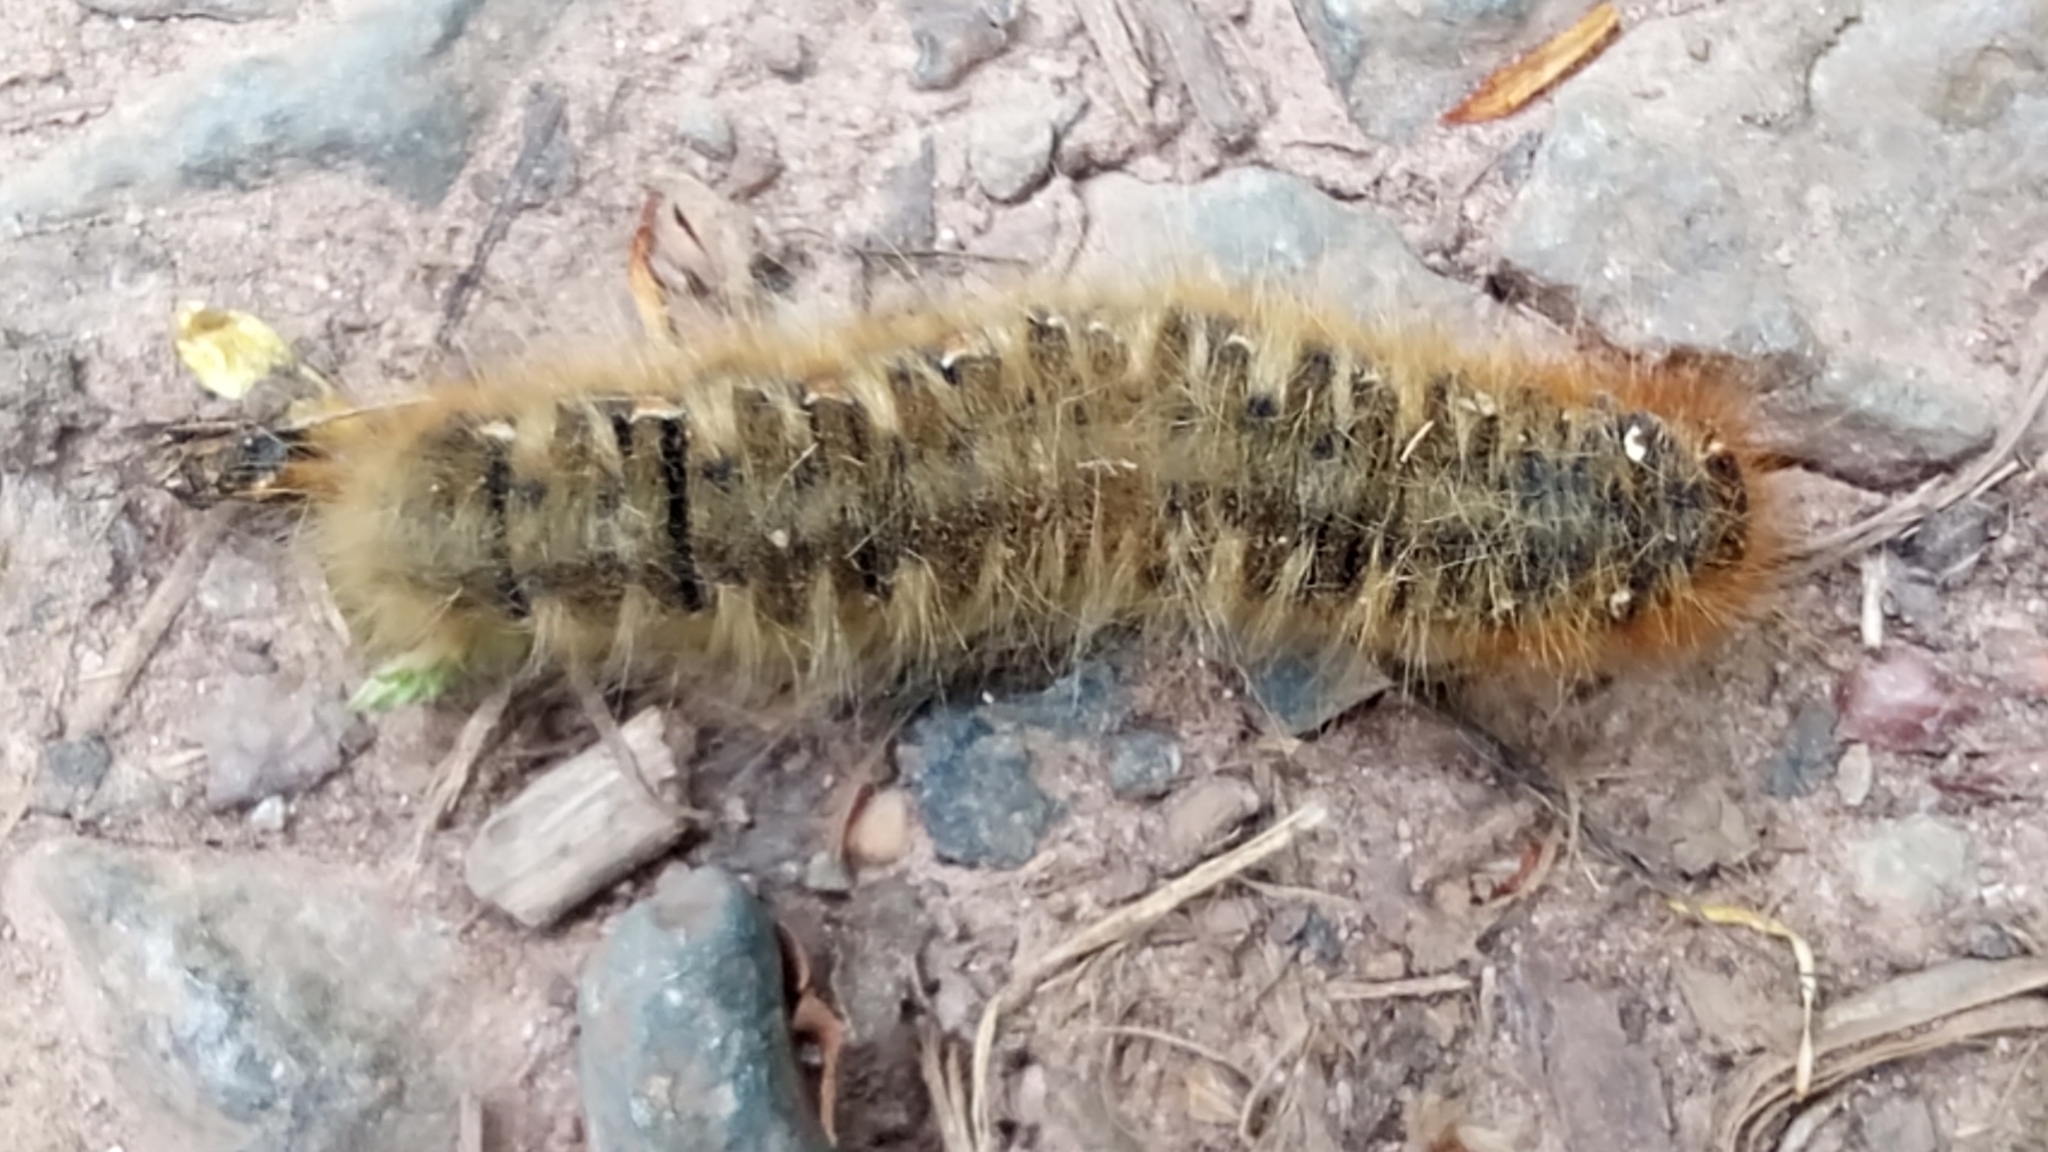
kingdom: Animalia
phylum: Arthropoda
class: Insecta
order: Lepidoptera
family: Lasiocampidae
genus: Lasiocampa
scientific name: Lasiocampa quercus
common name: Oak eggar
